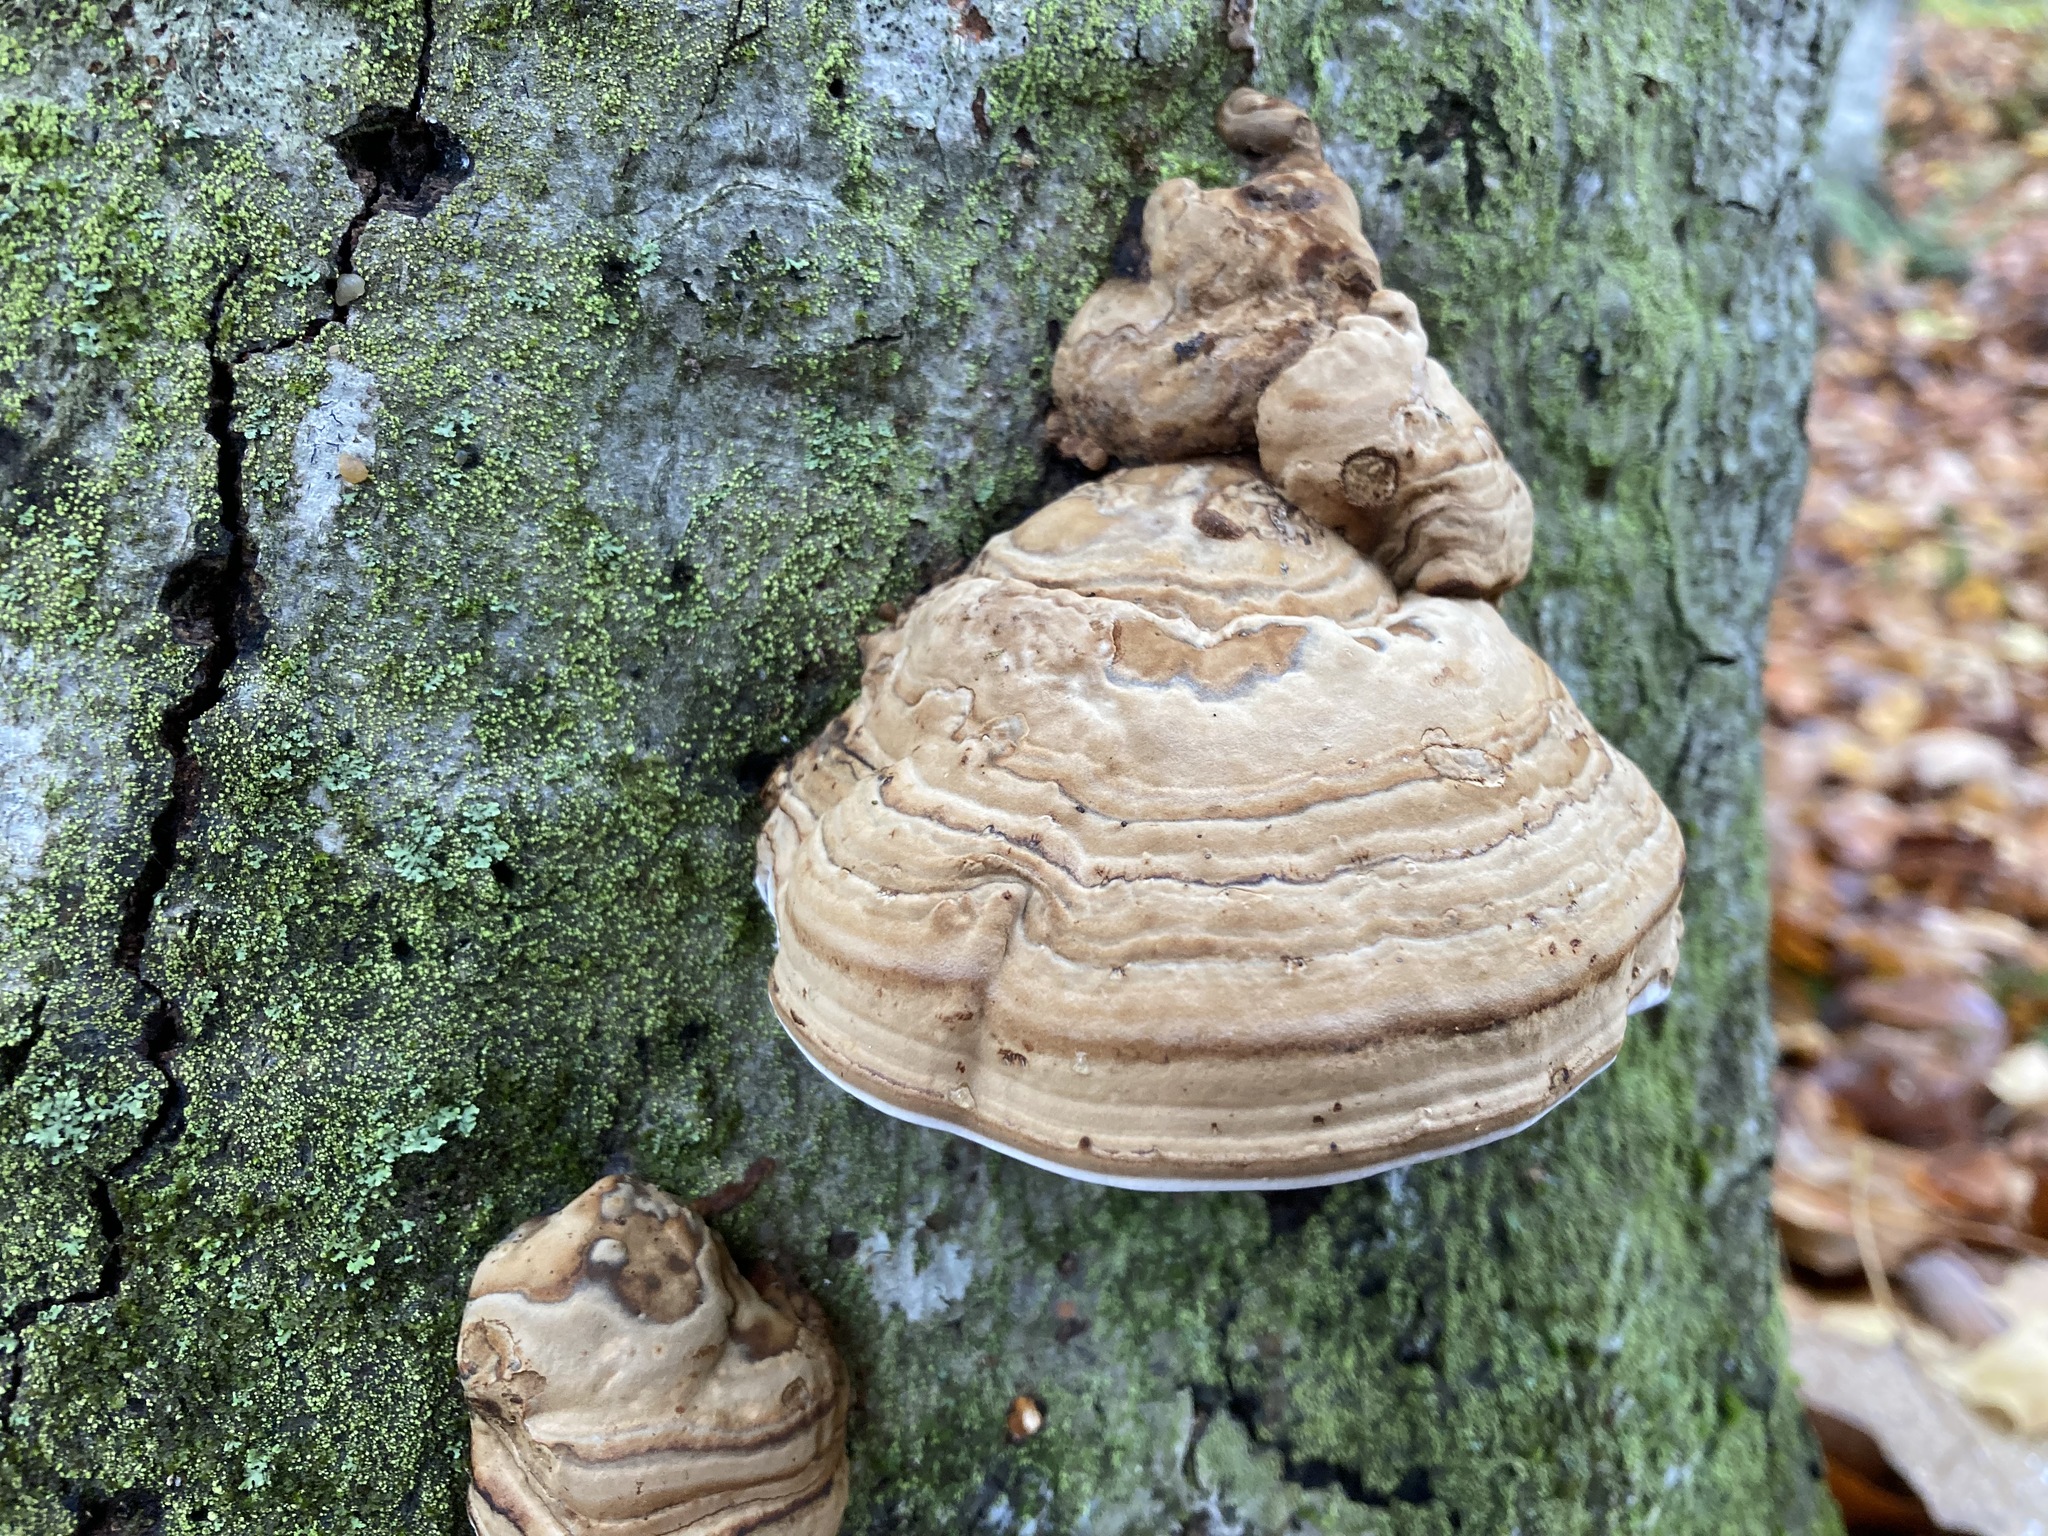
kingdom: Fungi
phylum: Basidiomycota
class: Agaricomycetes
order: Polyporales
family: Polyporaceae
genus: Fomes
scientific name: Fomes fomentarius
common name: Hoof fungus
